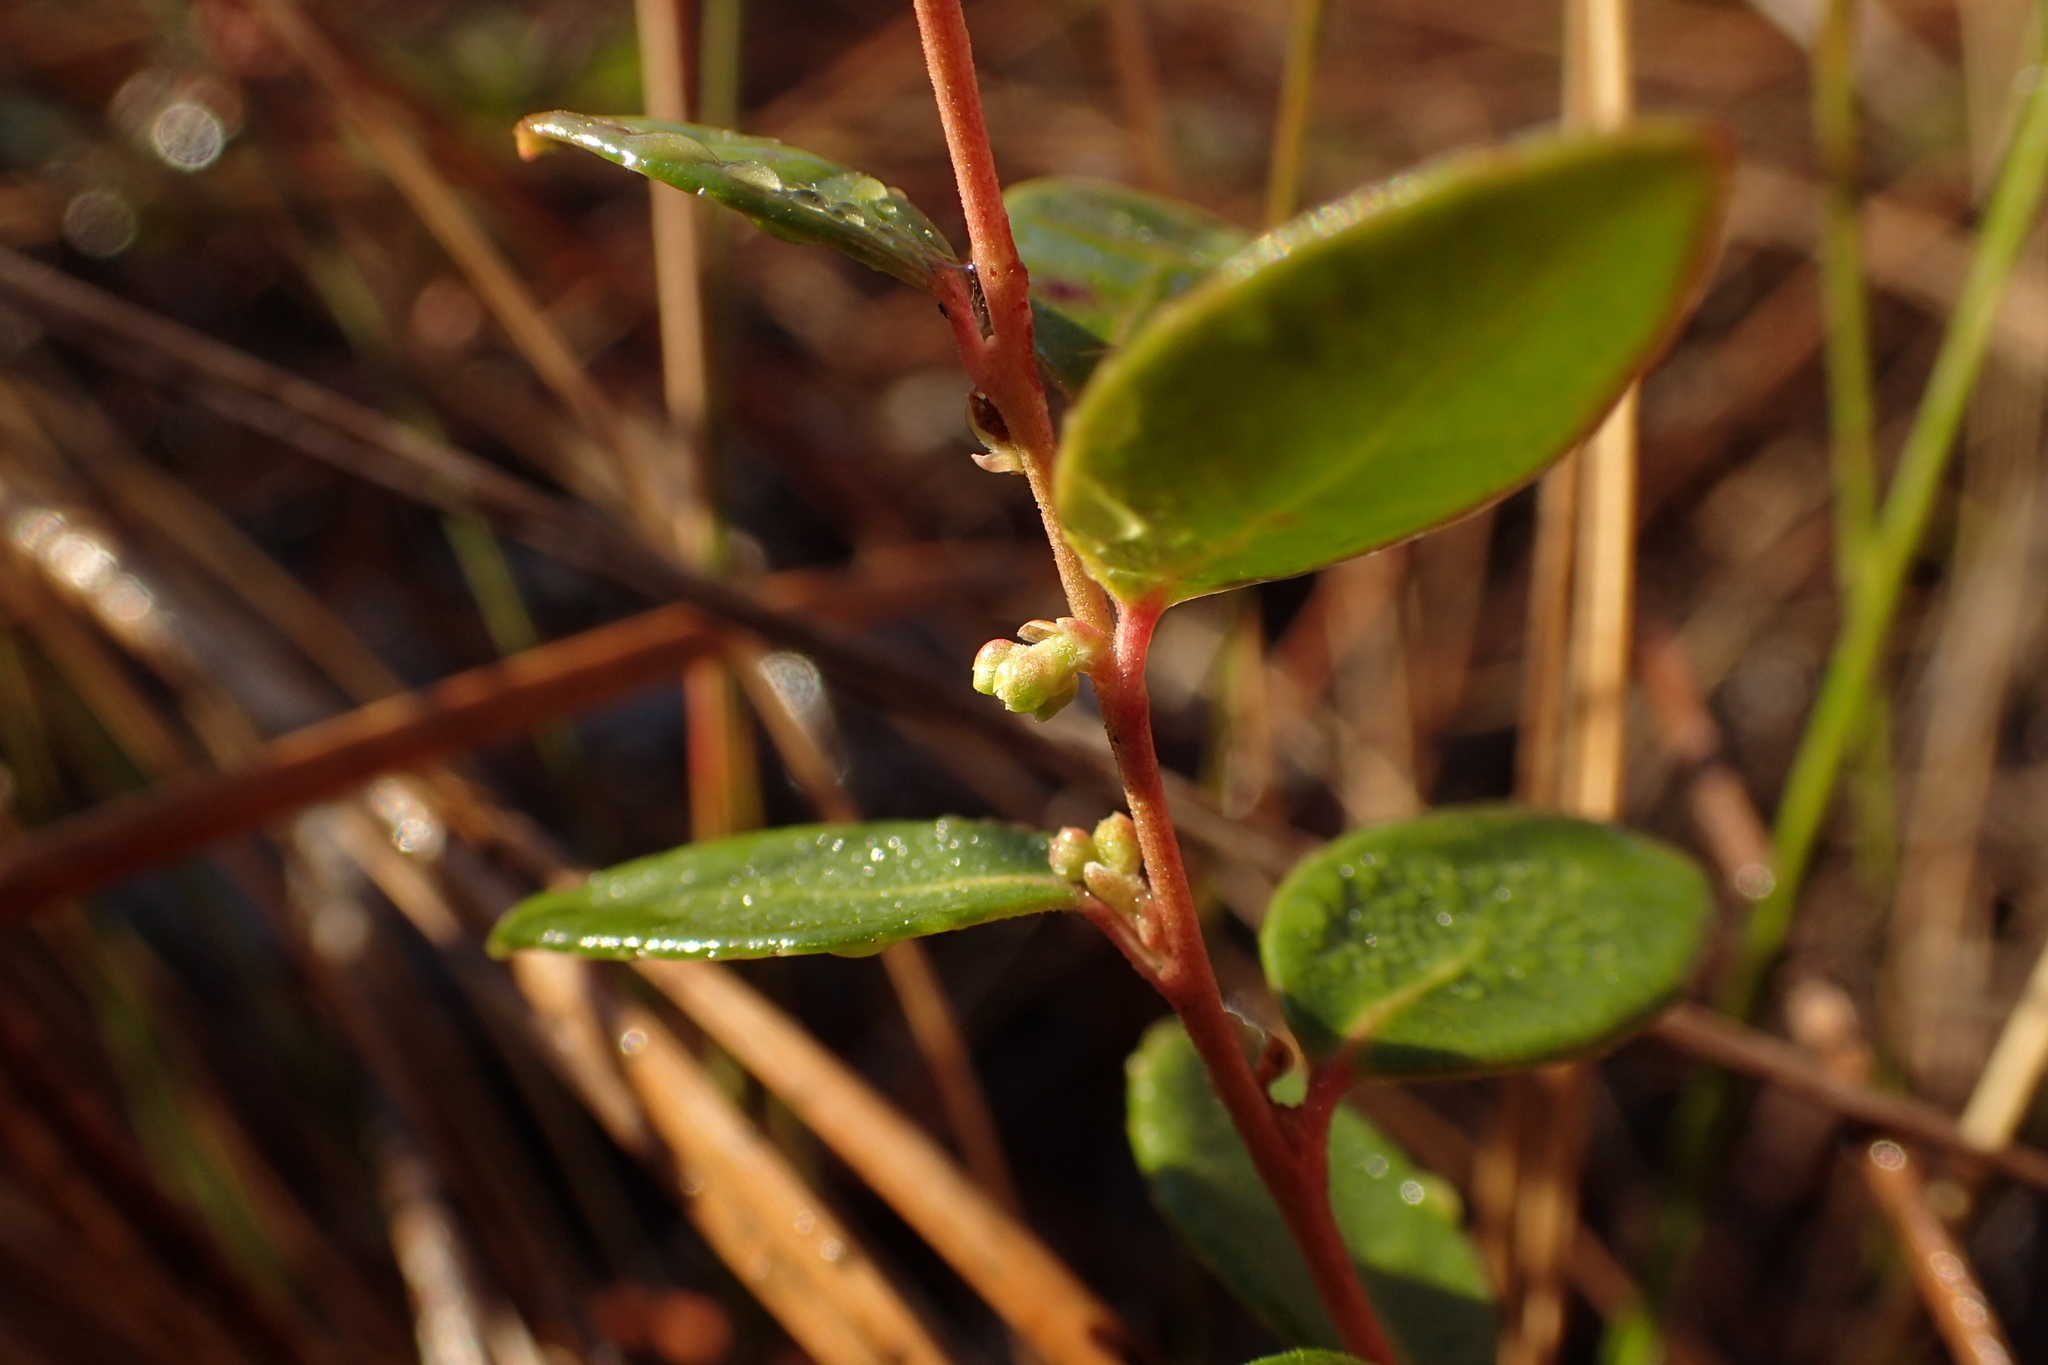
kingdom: Plantae
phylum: Tracheophyta
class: Magnoliopsida
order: Ericales
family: Ericaceae
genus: Vaccinium
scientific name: Vaccinium crassifolium
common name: Creeping blueberry
